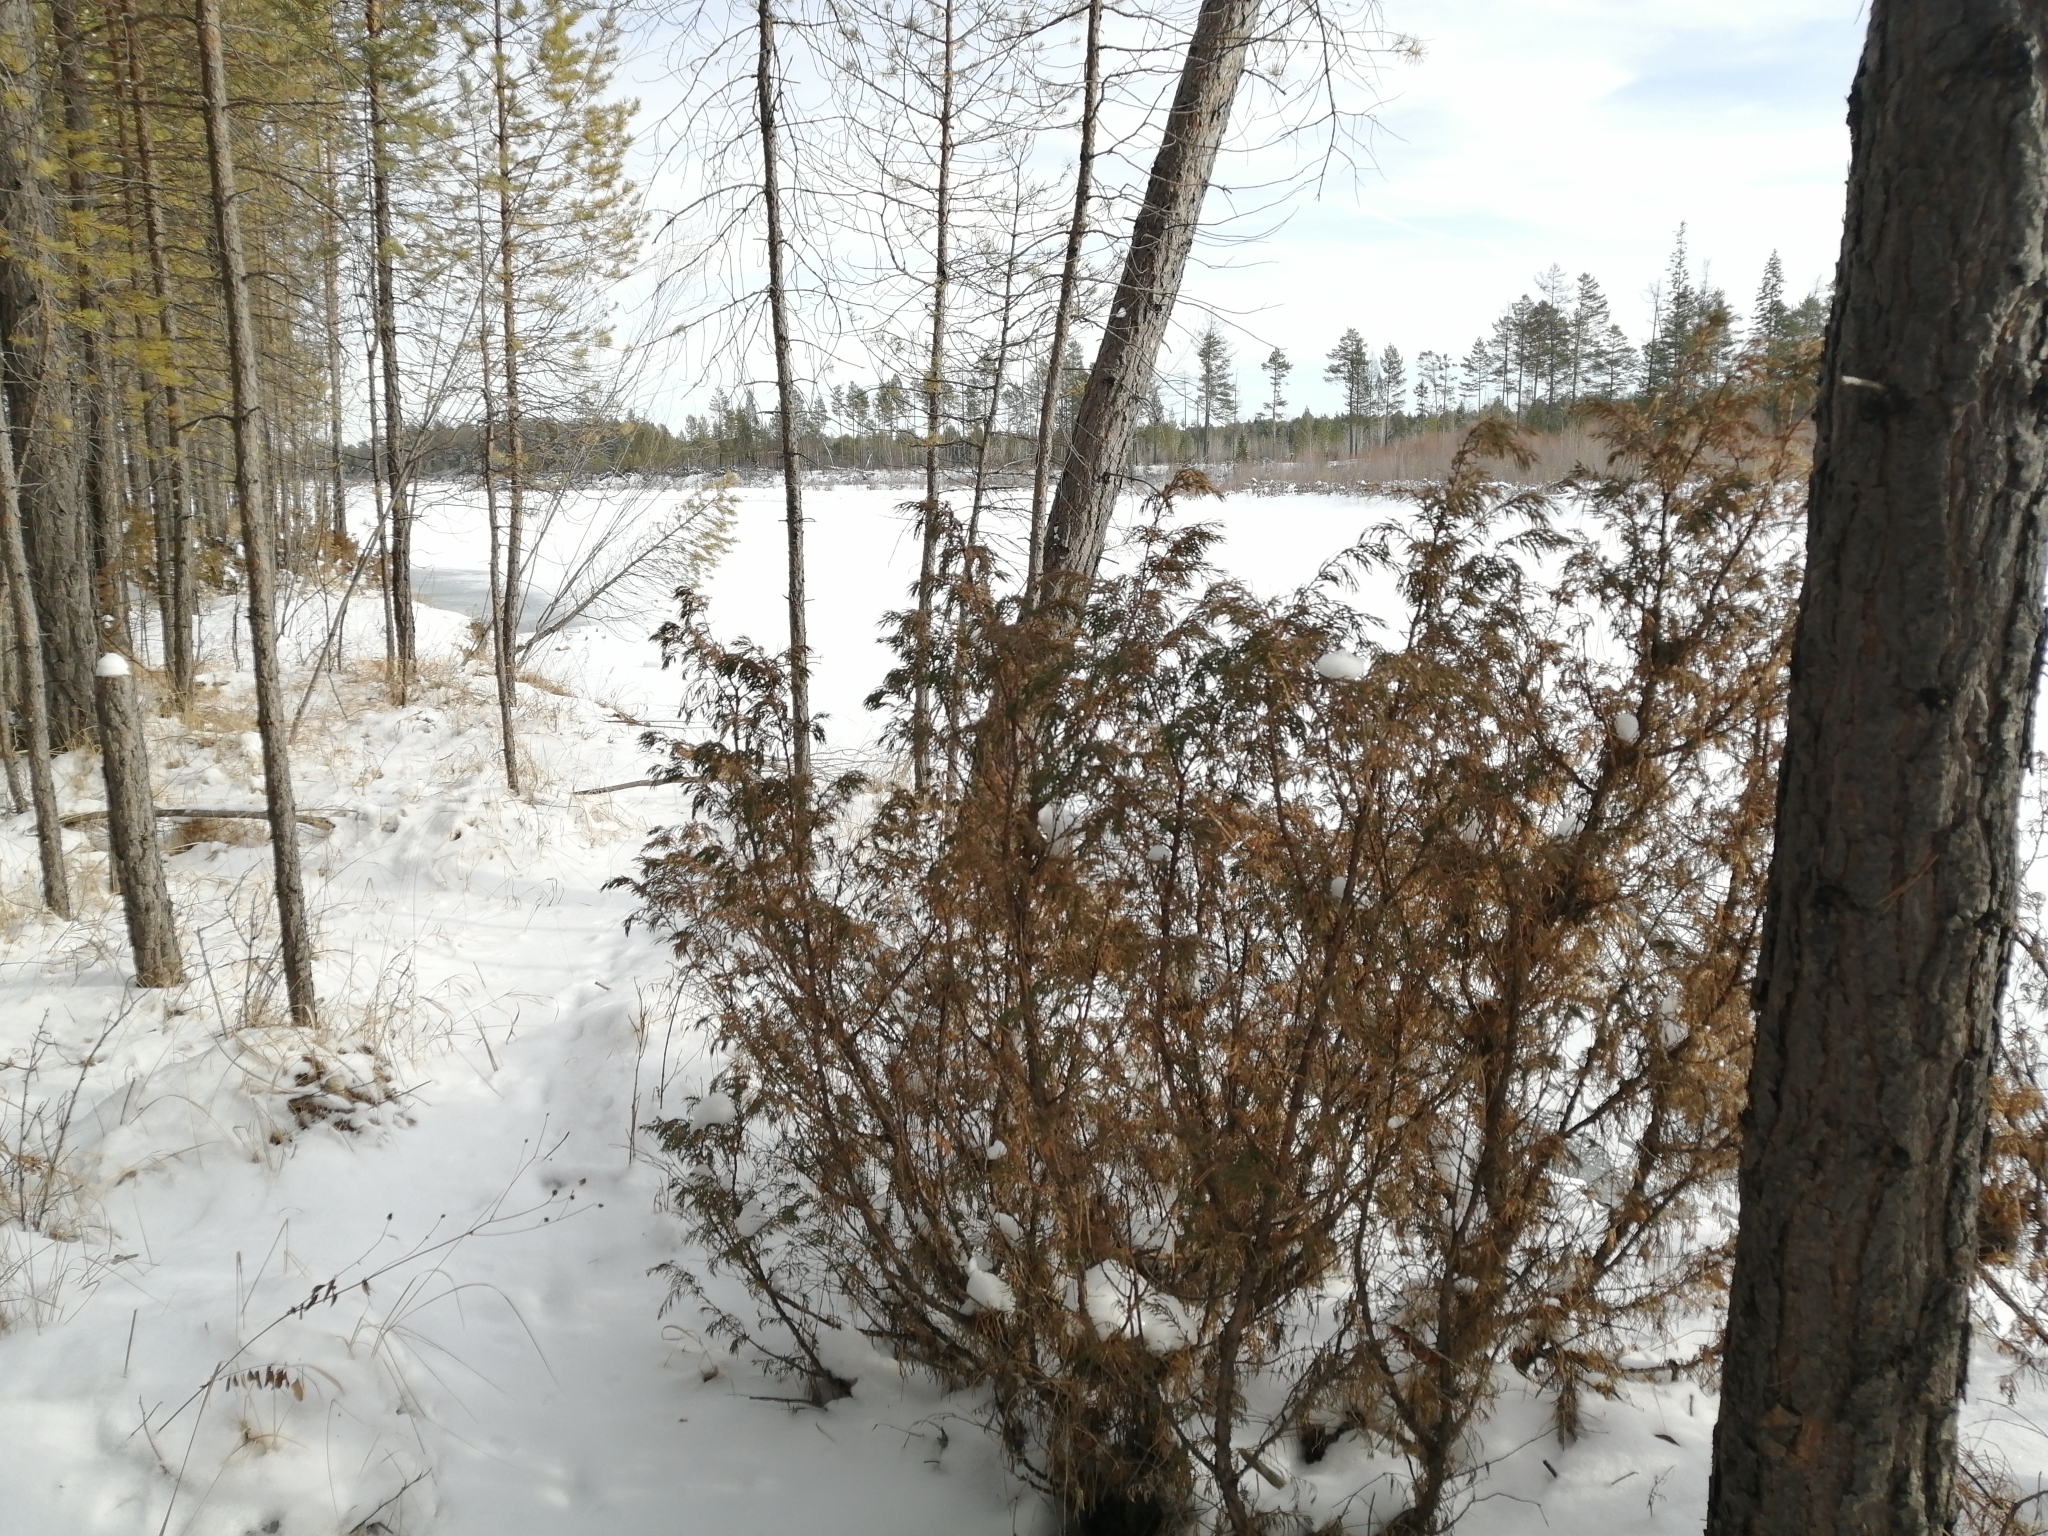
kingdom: Plantae
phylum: Tracheophyta
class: Pinopsida
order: Pinales
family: Cupressaceae
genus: Juniperus
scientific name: Juniperus communis
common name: Common juniper
